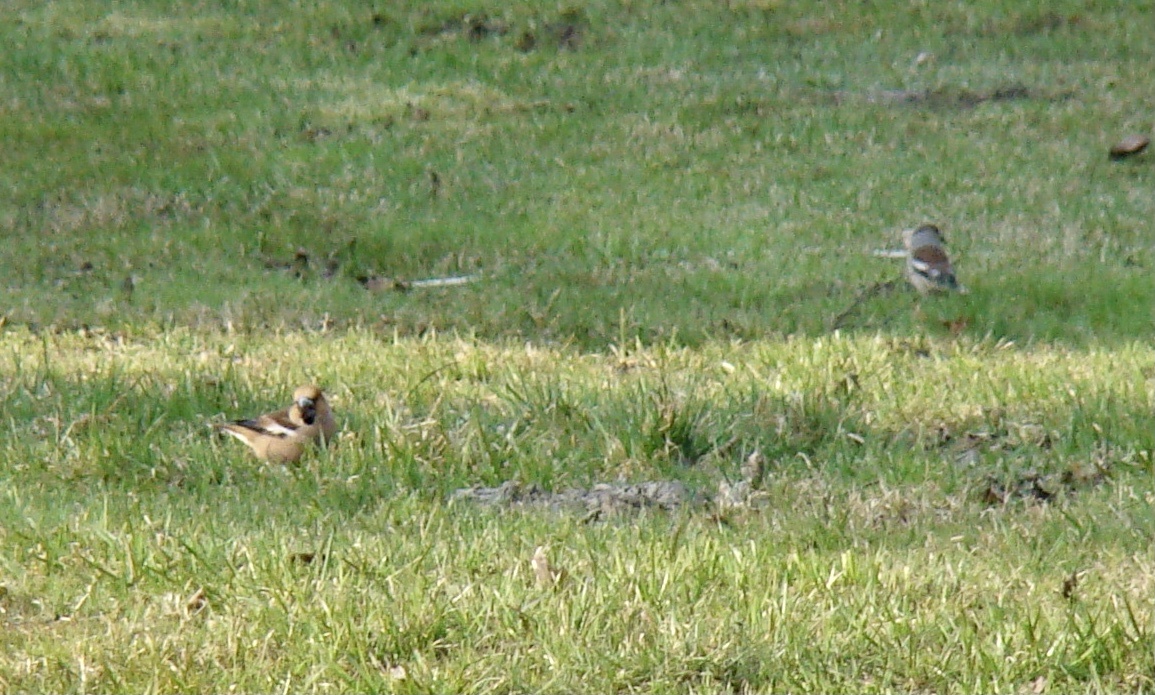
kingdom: Animalia
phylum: Chordata
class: Aves
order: Passeriformes
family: Fringillidae
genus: Coccothraustes
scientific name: Coccothraustes coccothraustes
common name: Hawfinch
